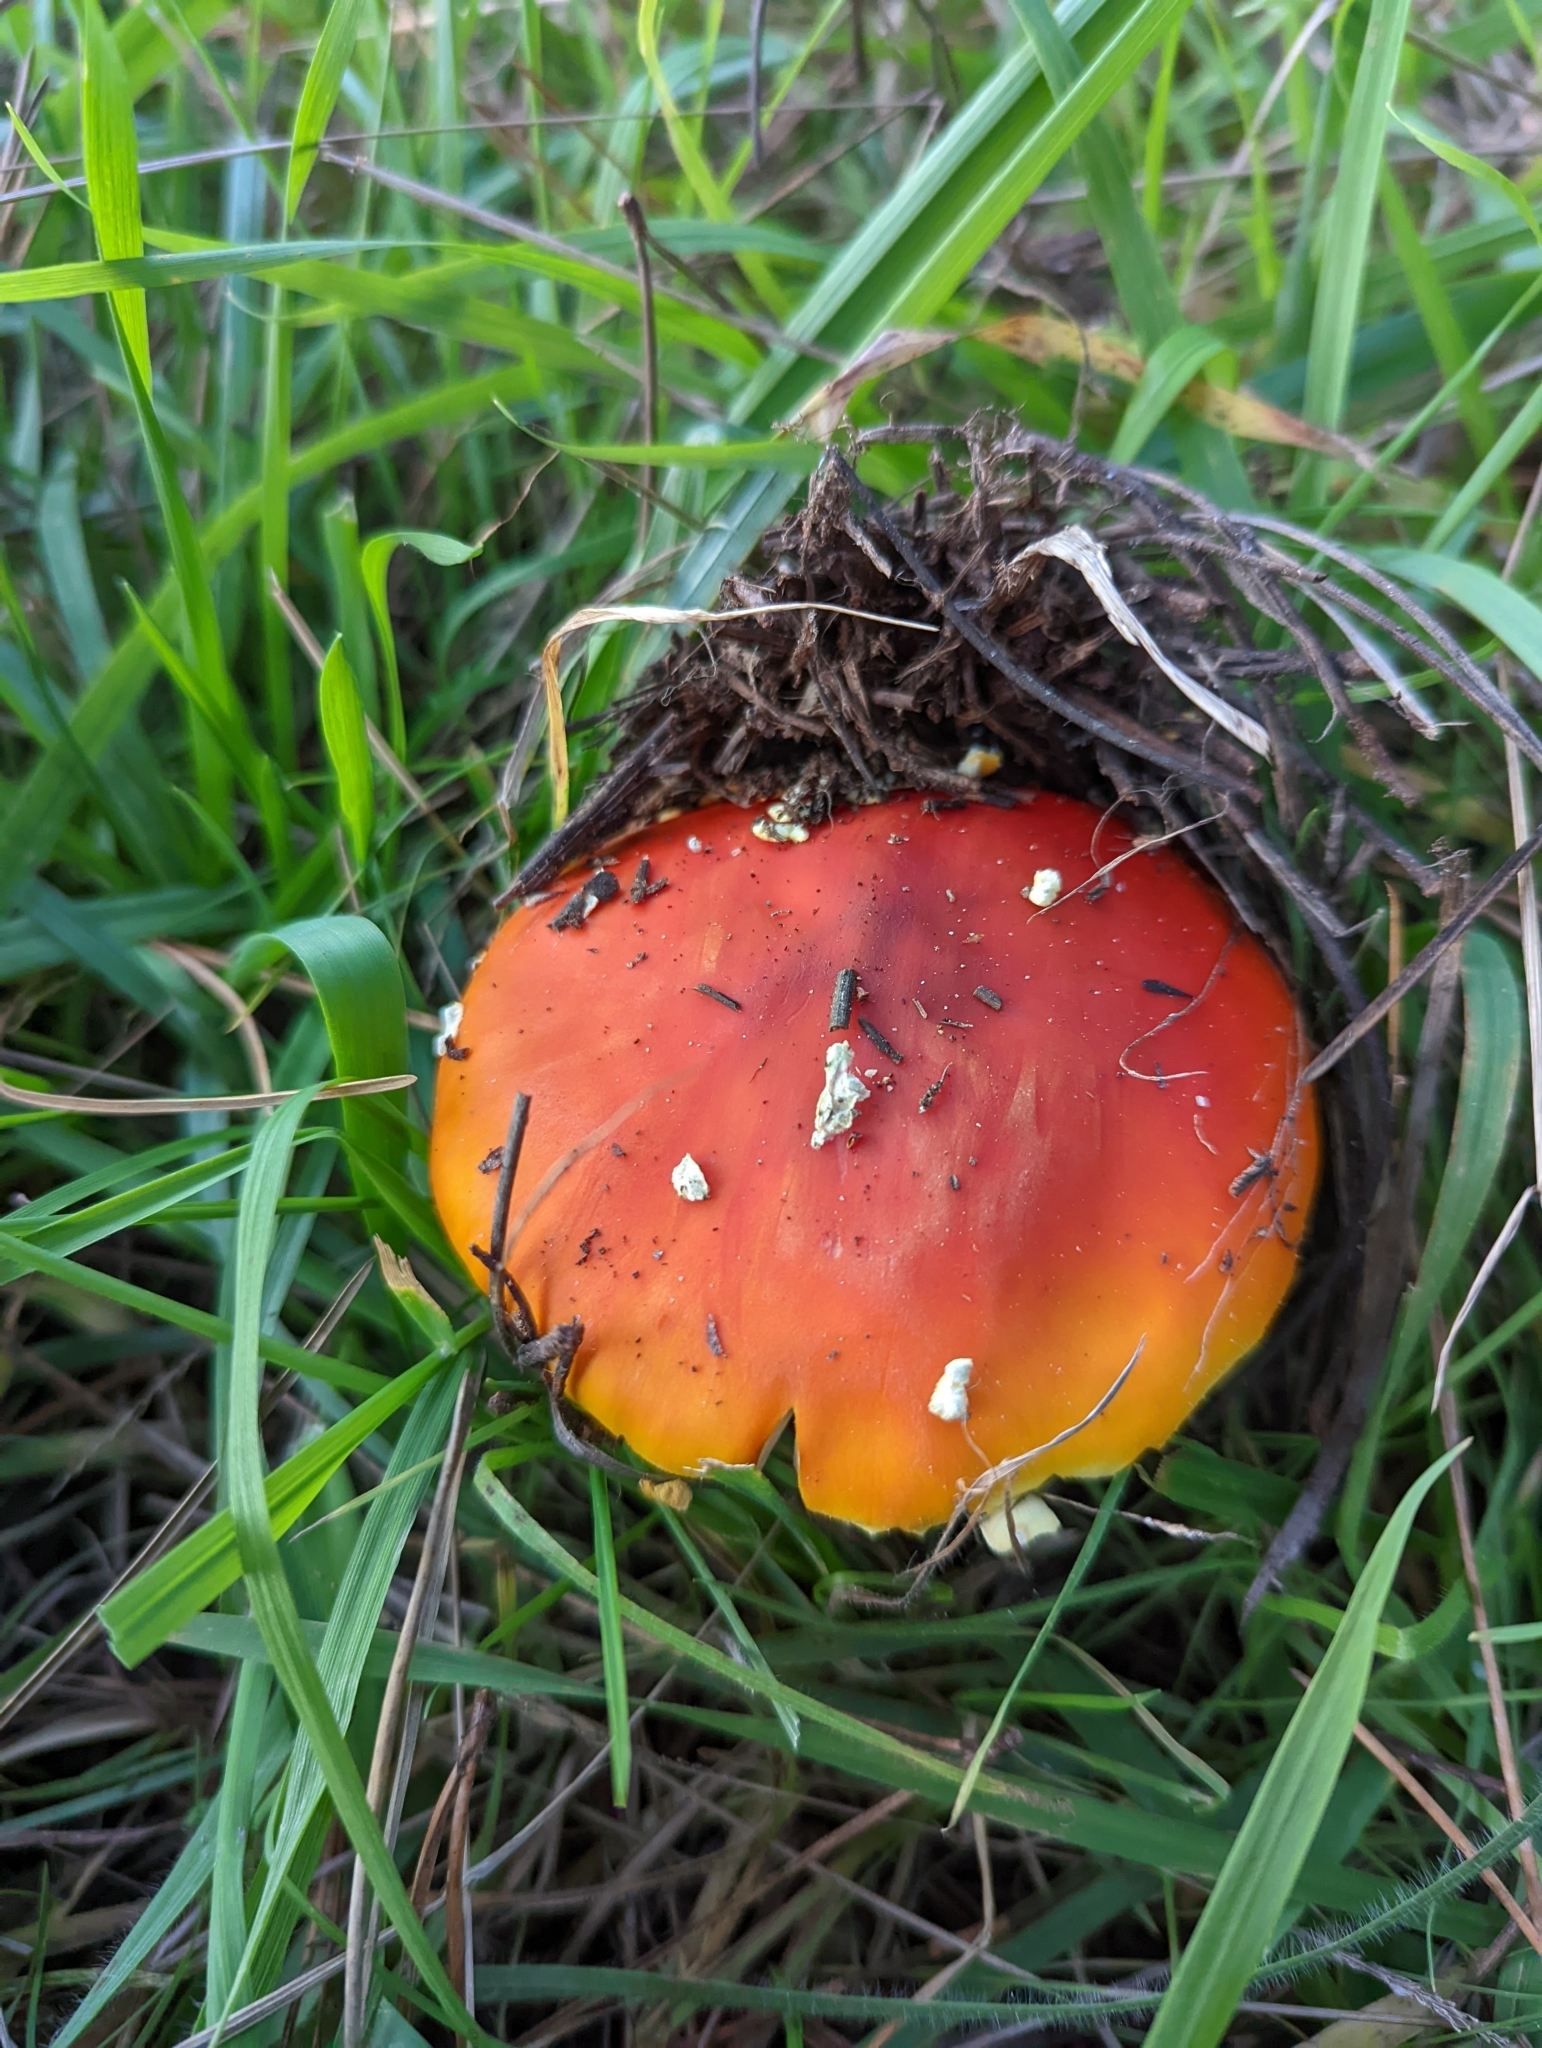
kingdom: Fungi
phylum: Basidiomycota
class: Agaricomycetes
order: Agaricales
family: Amanitaceae
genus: Amanita
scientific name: Amanita muscaria
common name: Fly agaric
